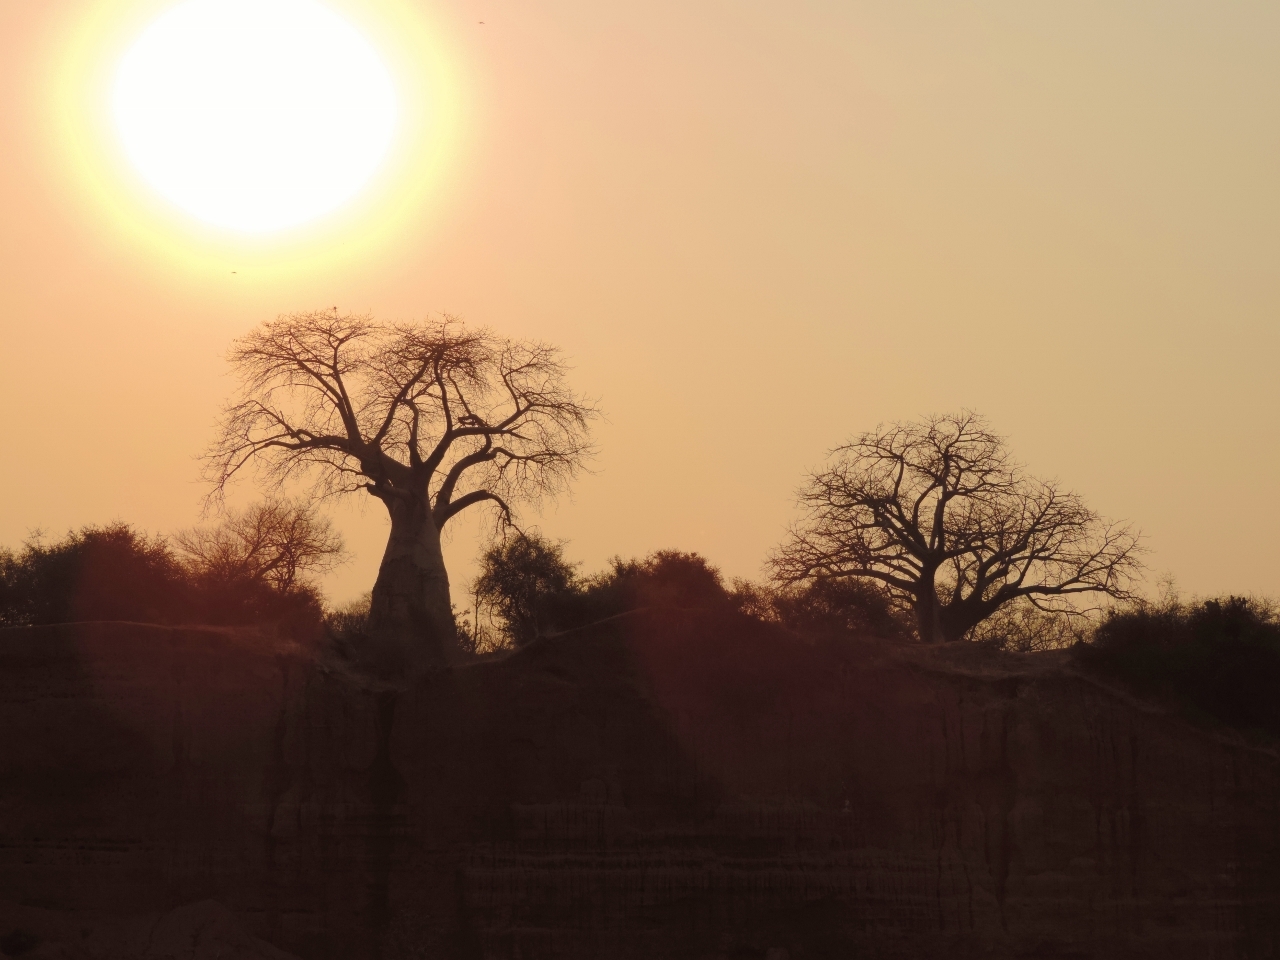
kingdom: Plantae
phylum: Tracheophyta
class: Magnoliopsida
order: Malvales
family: Malvaceae
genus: Adansonia
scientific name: Adansonia digitata
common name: Dead-rat-tree
